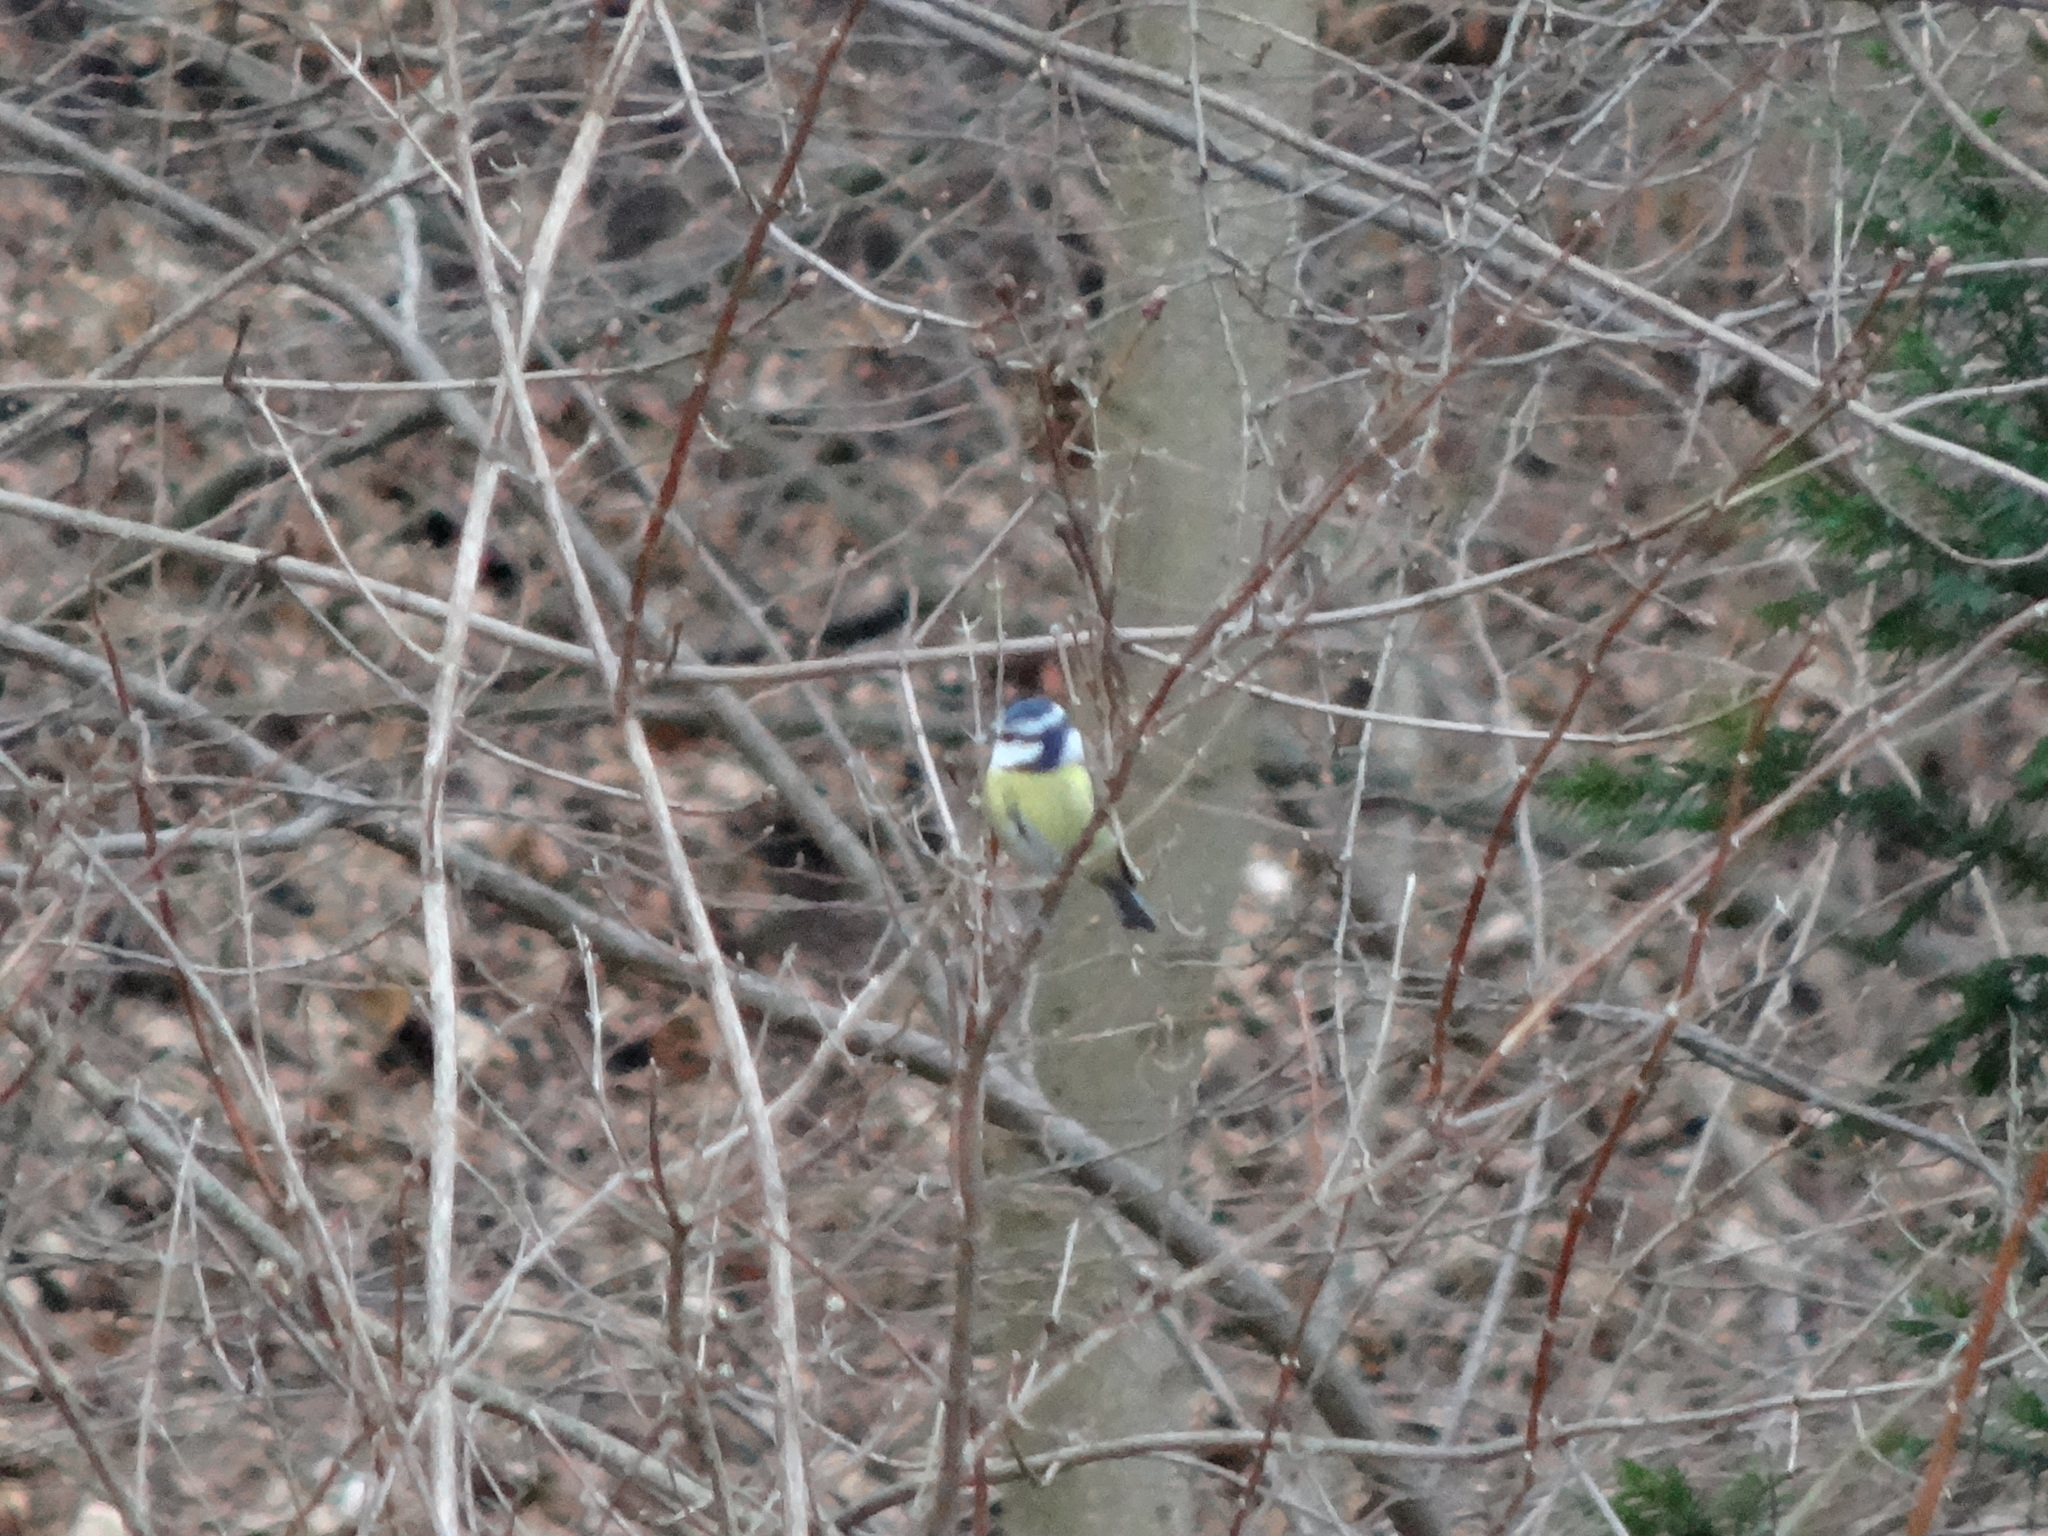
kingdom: Animalia
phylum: Chordata
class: Aves
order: Passeriformes
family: Paridae
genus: Cyanistes
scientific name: Cyanistes caeruleus
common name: Eurasian blue tit
